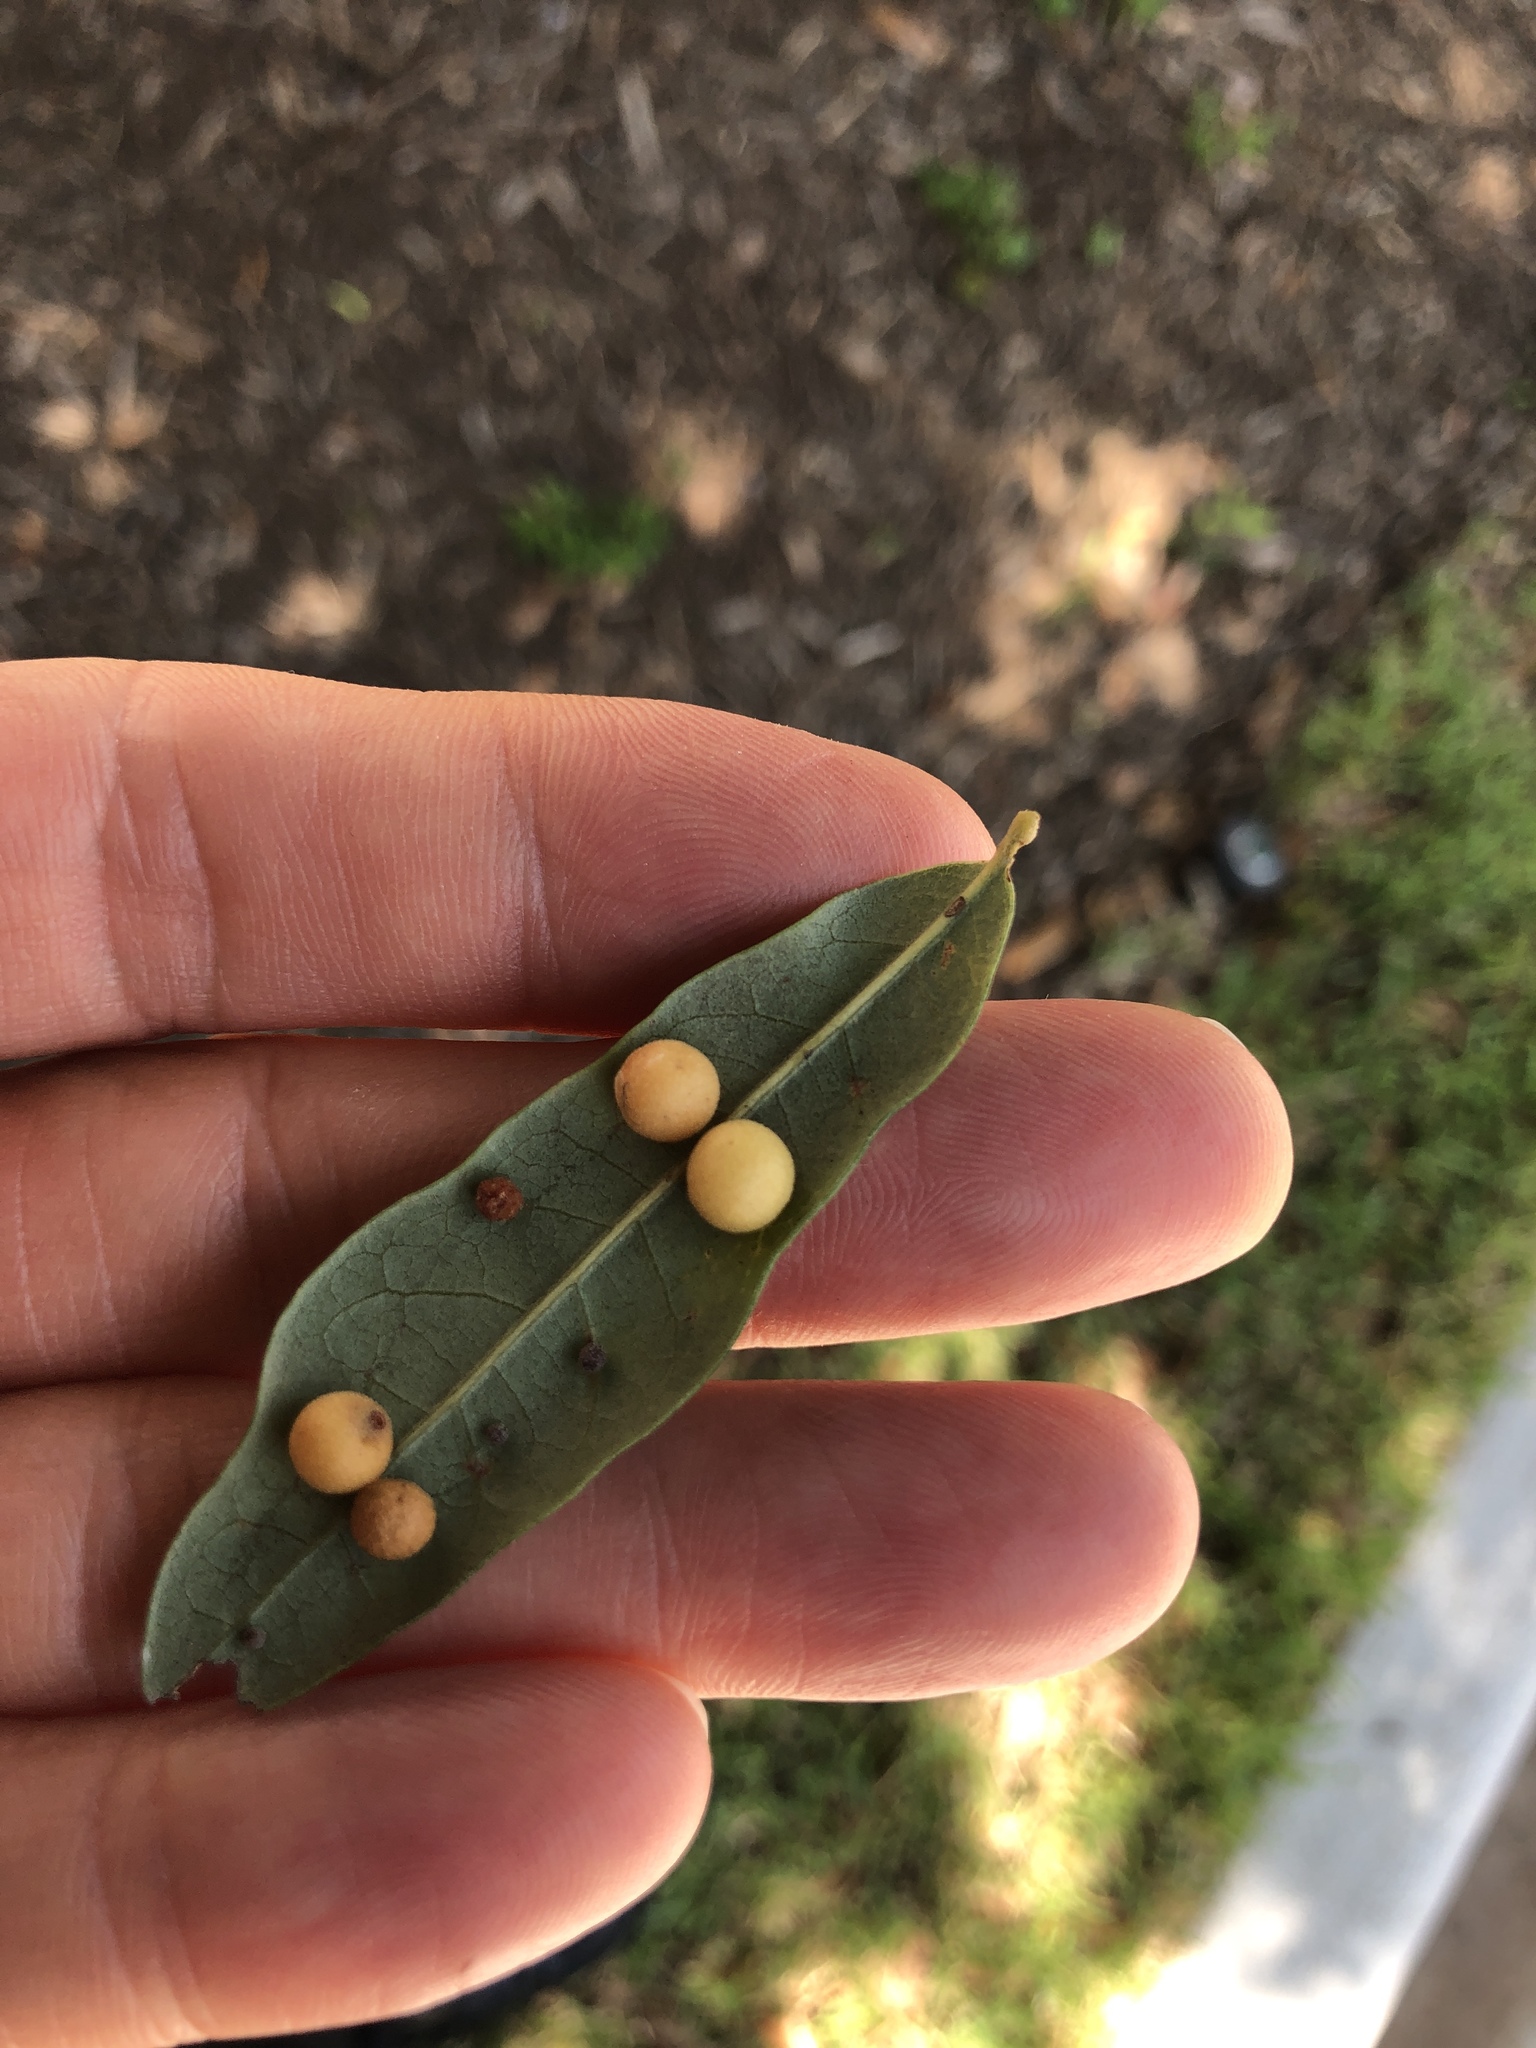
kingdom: Animalia
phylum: Arthropoda
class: Insecta
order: Hymenoptera
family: Cynipidae
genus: Belonocnema
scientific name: Belonocnema kinseyi
